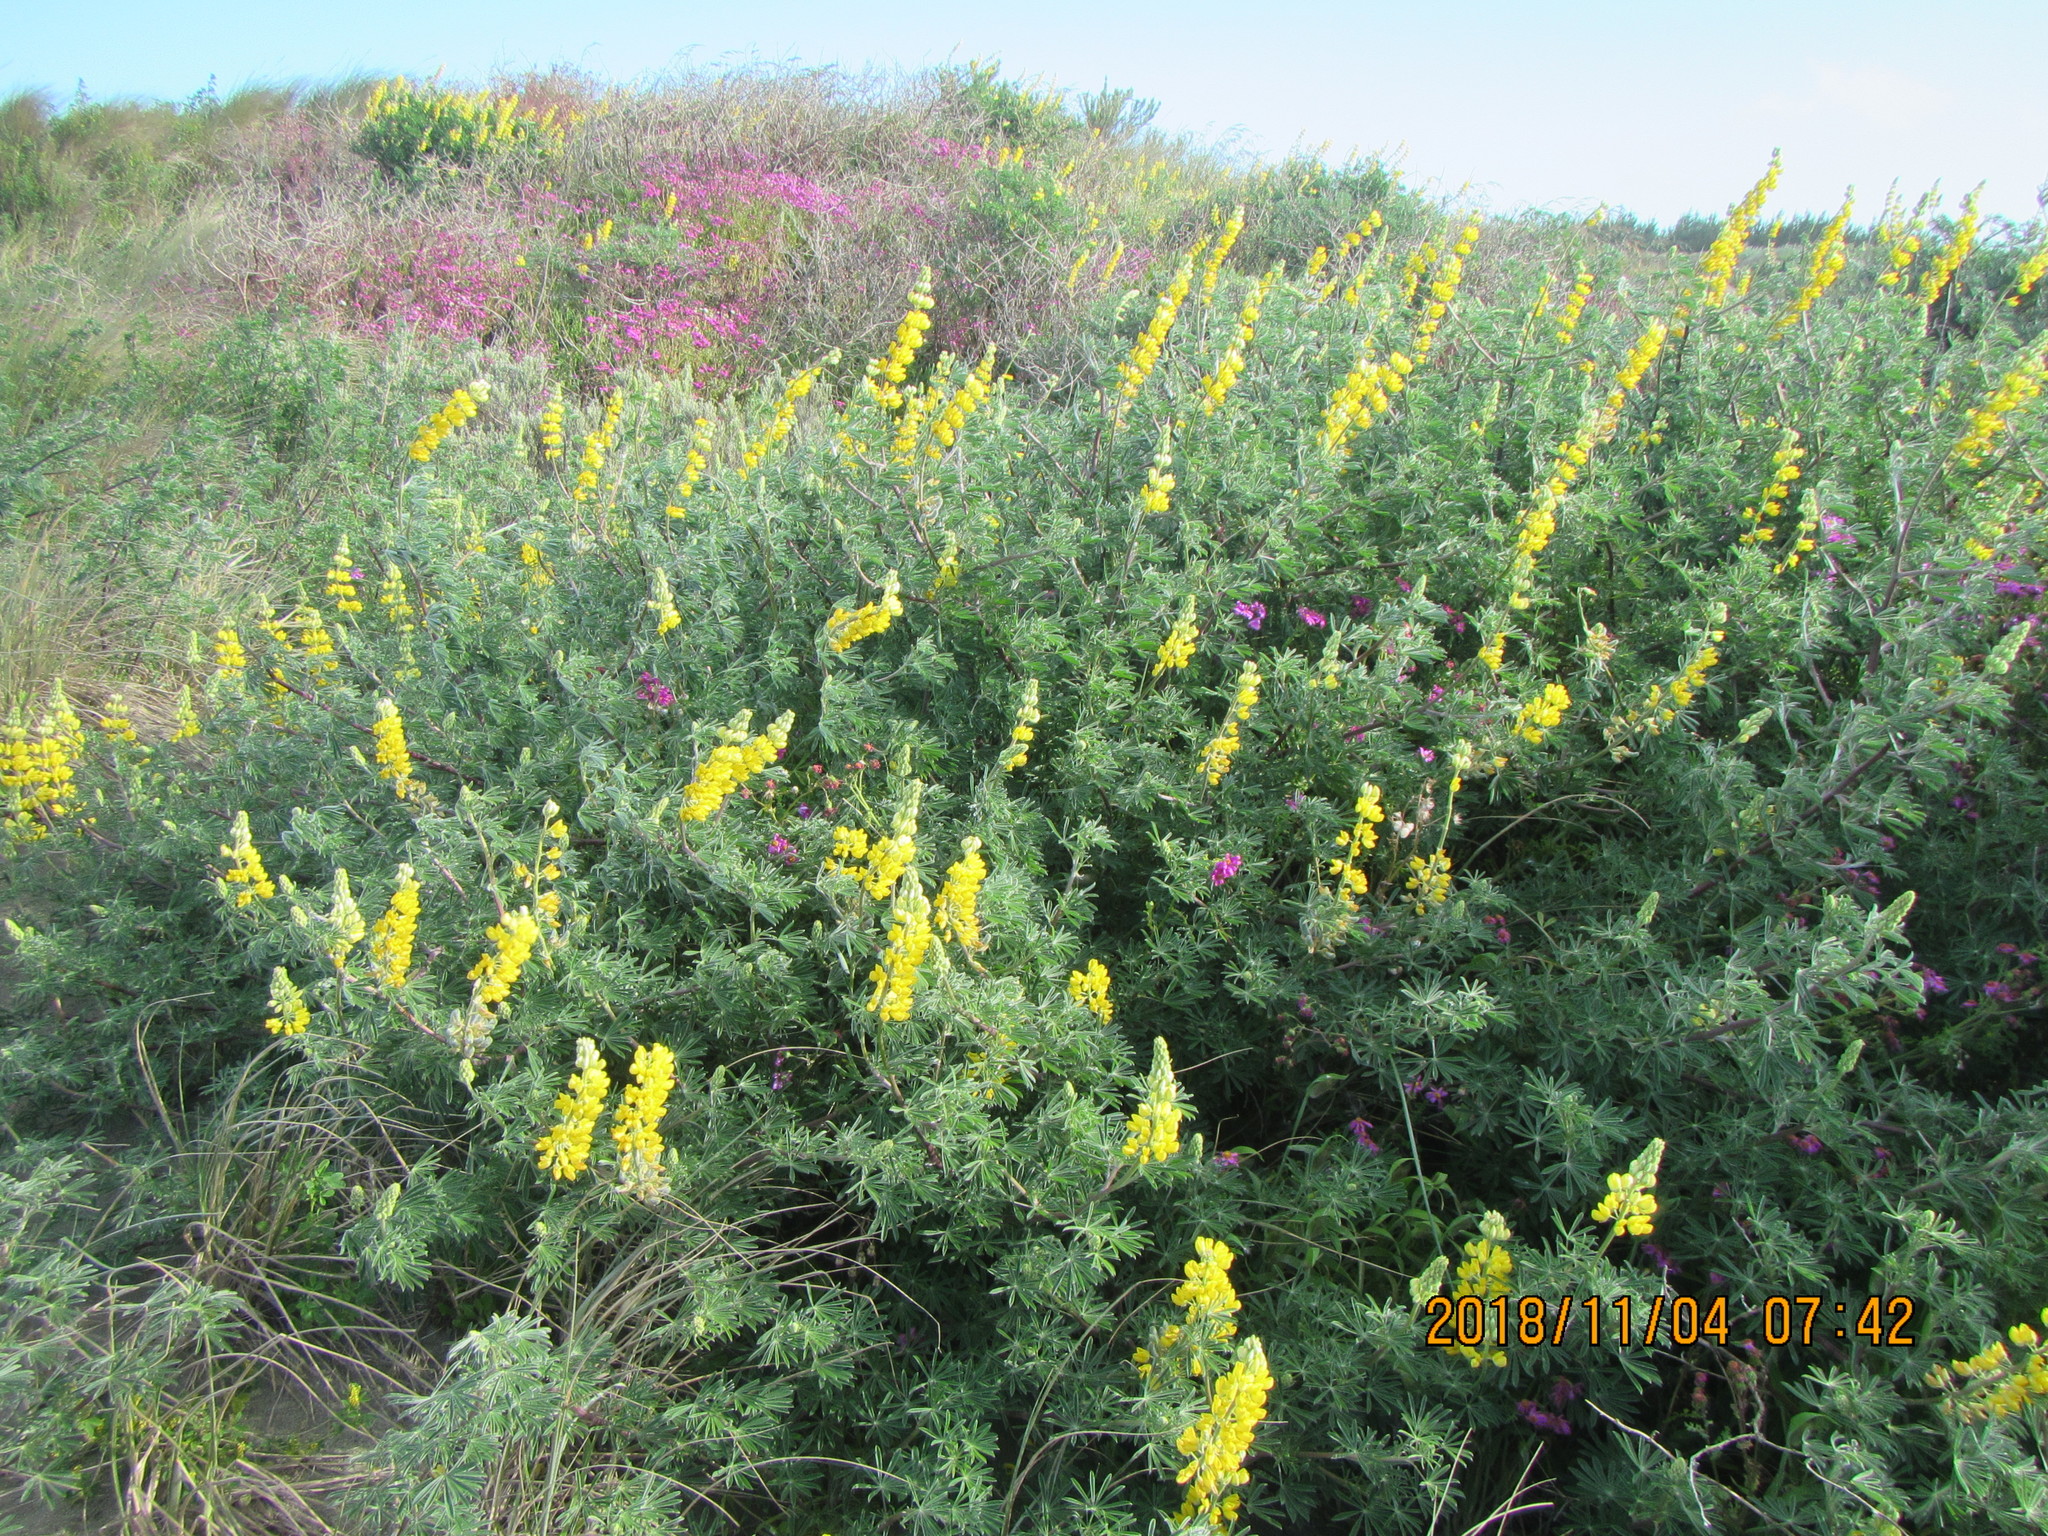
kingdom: Plantae
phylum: Tracheophyta
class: Magnoliopsida
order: Fabales
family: Fabaceae
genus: Lupinus
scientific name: Lupinus arboreus
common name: Yellow bush lupine
